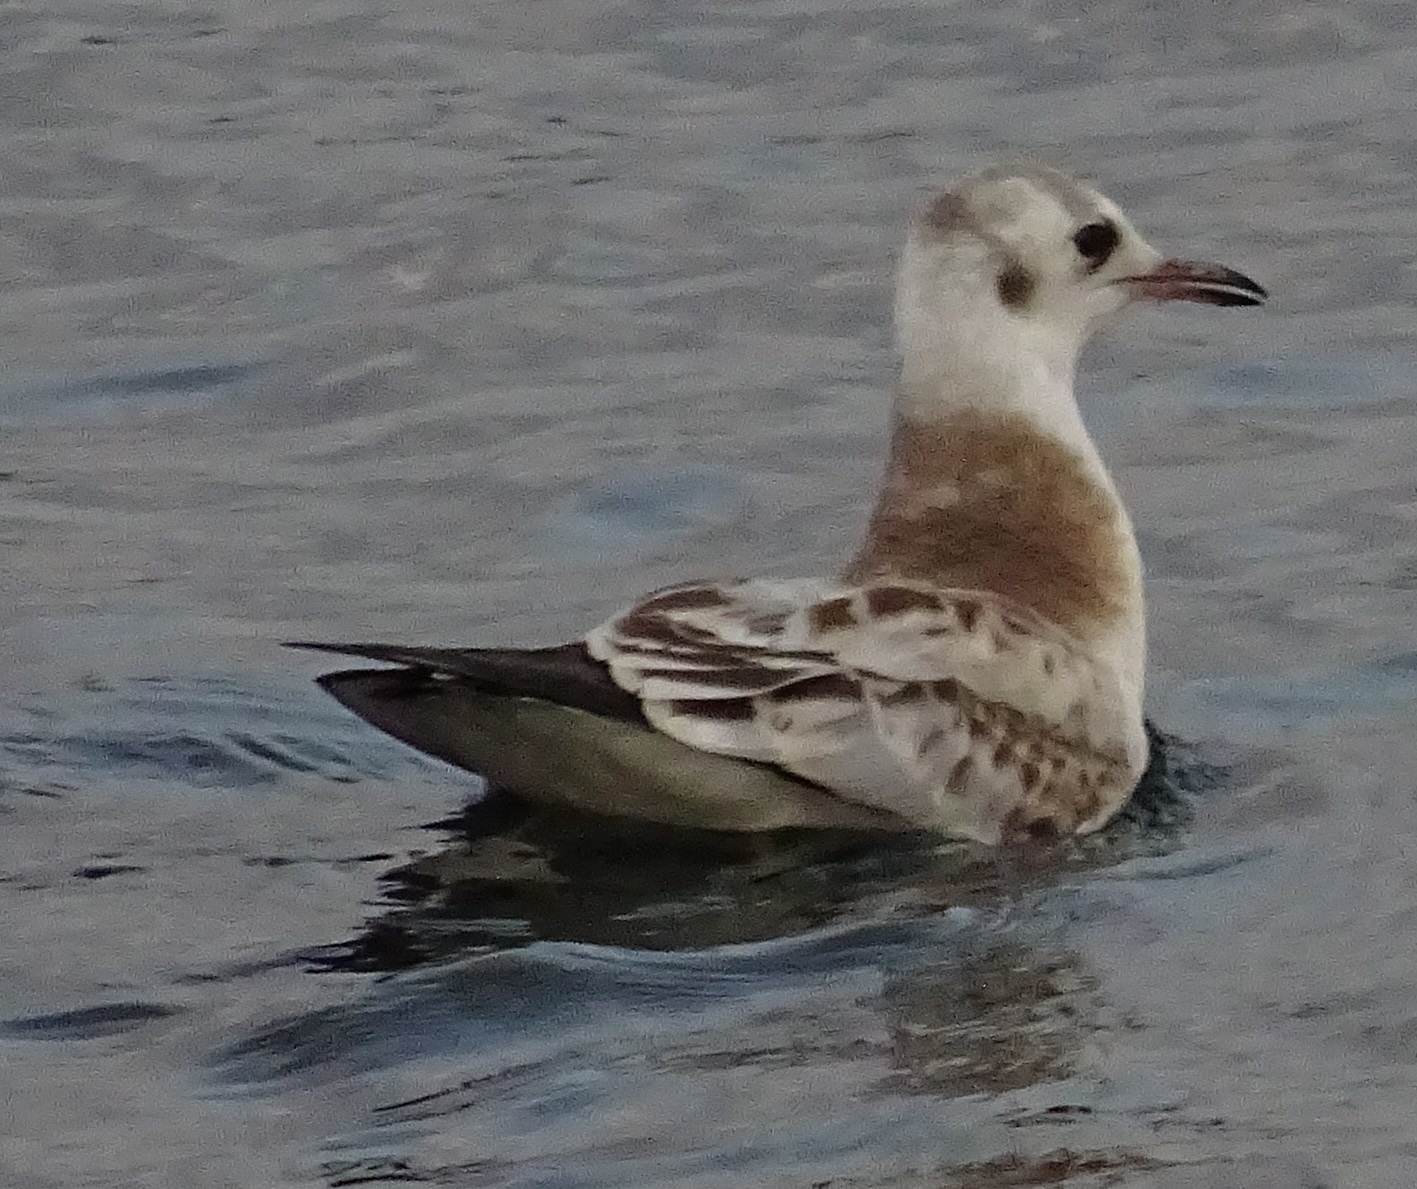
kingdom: Animalia
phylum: Chordata
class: Aves
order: Charadriiformes
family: Laridae
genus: Chroicocephalus
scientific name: Chroicocephalus ridibundus
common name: Black-headed gull
